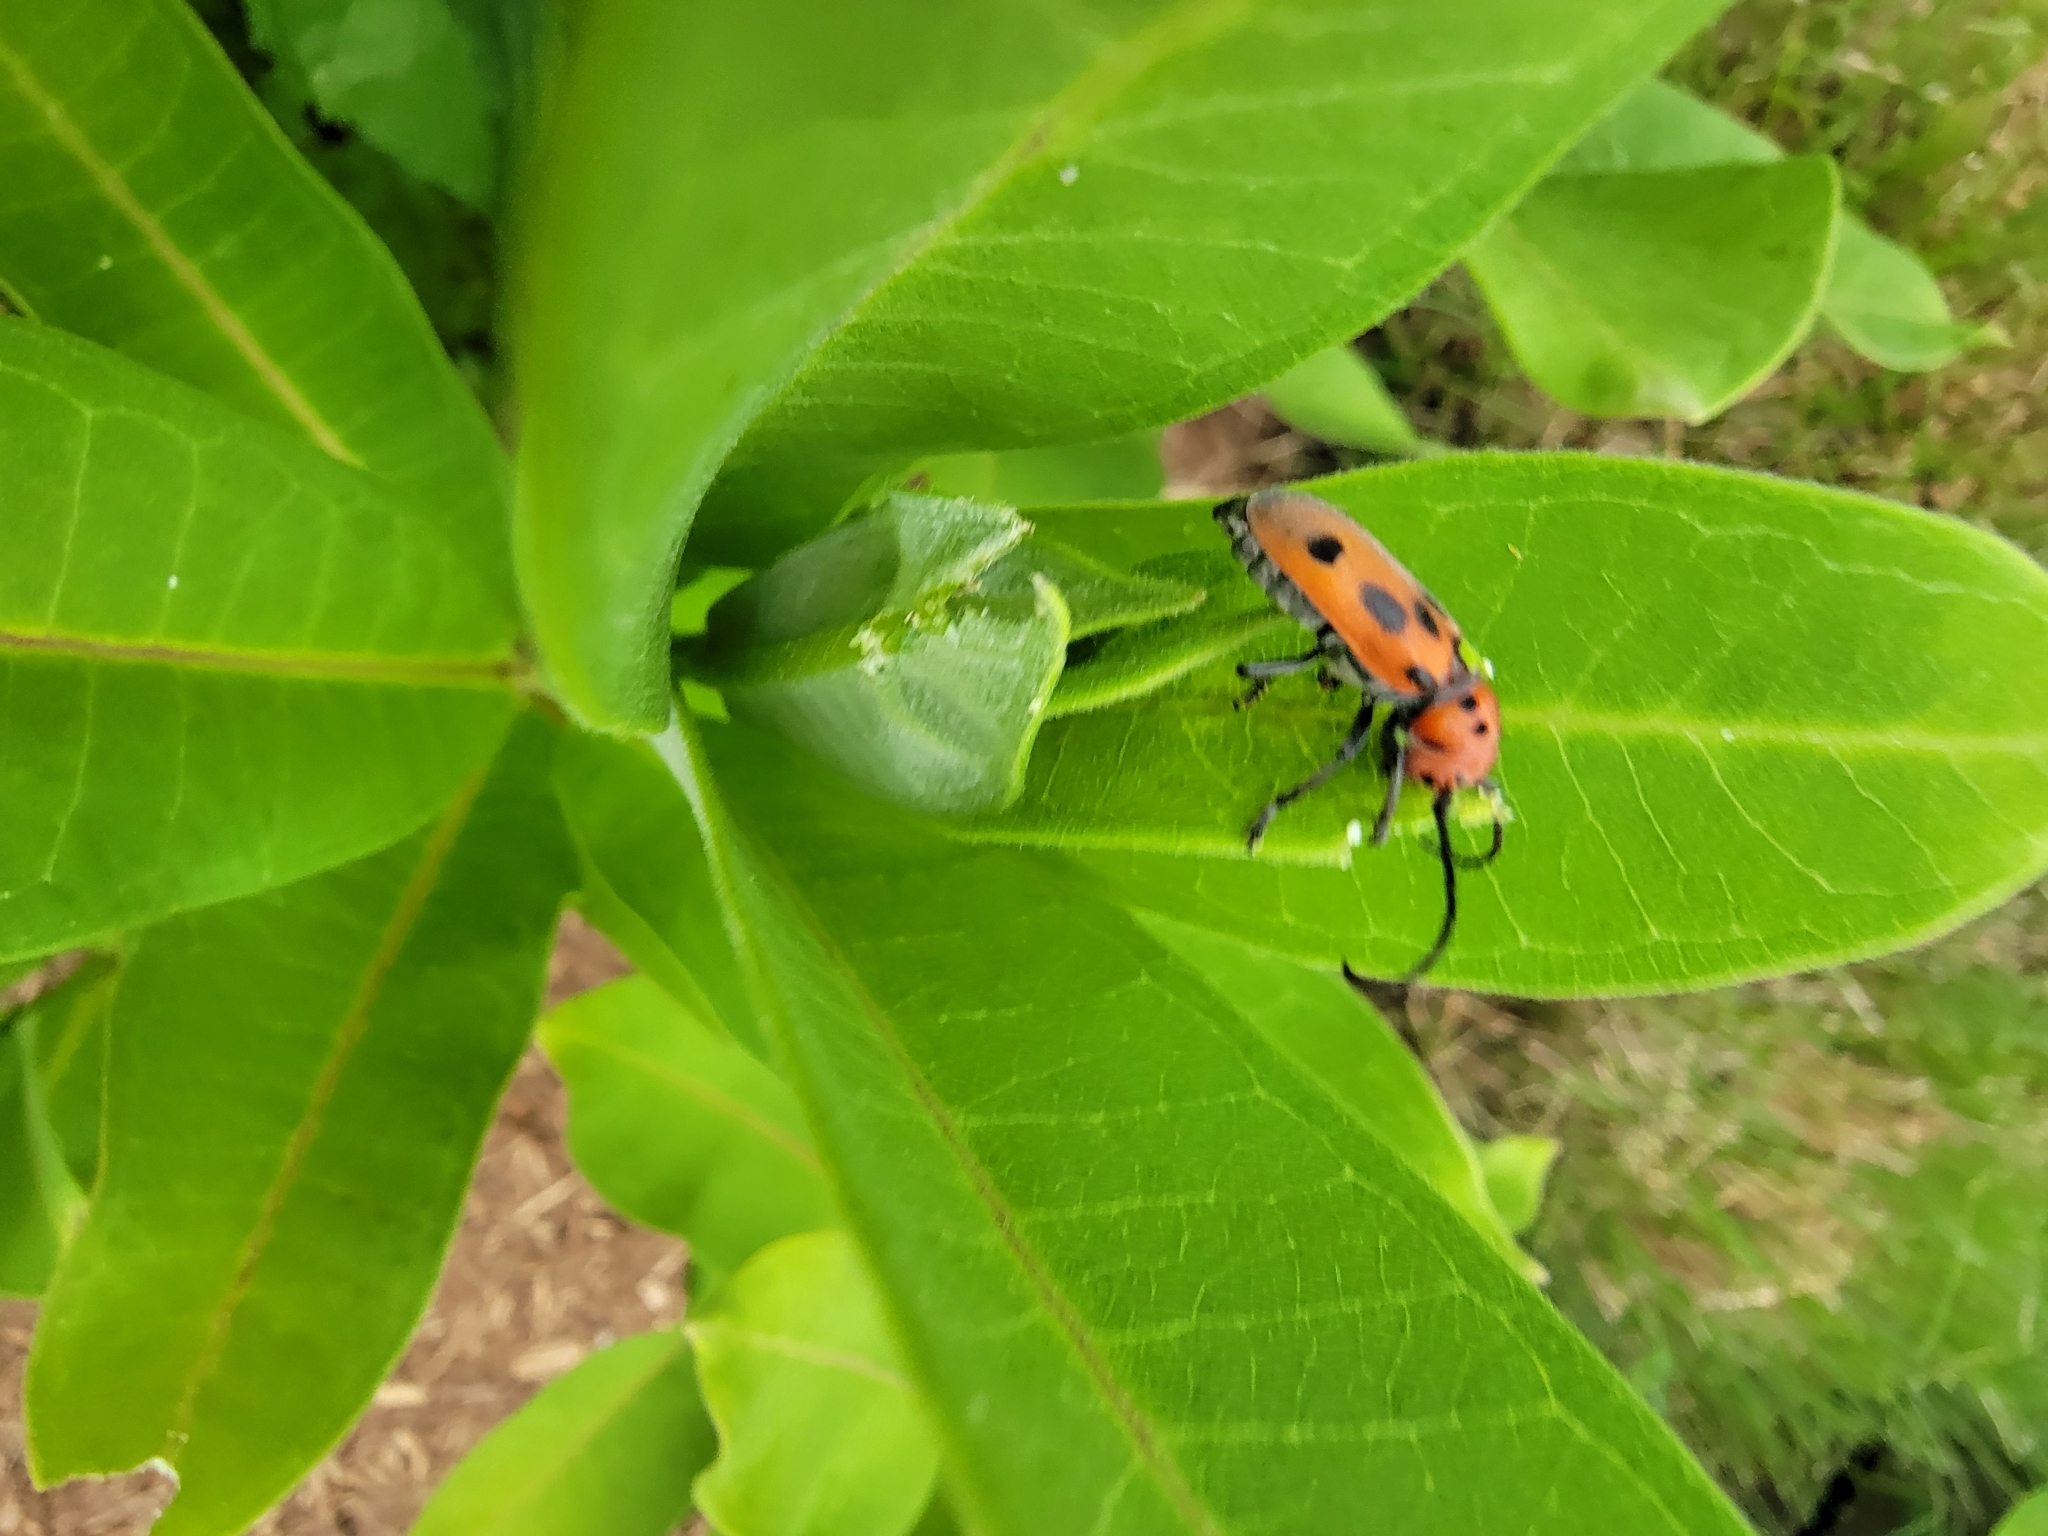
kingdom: Animalia
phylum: Arthropoda
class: Insecta
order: Coleoptera
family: Cerambycidae
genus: Tetraopes
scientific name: Tetraopes tetrophthalmus
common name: Red milkweed beetle
